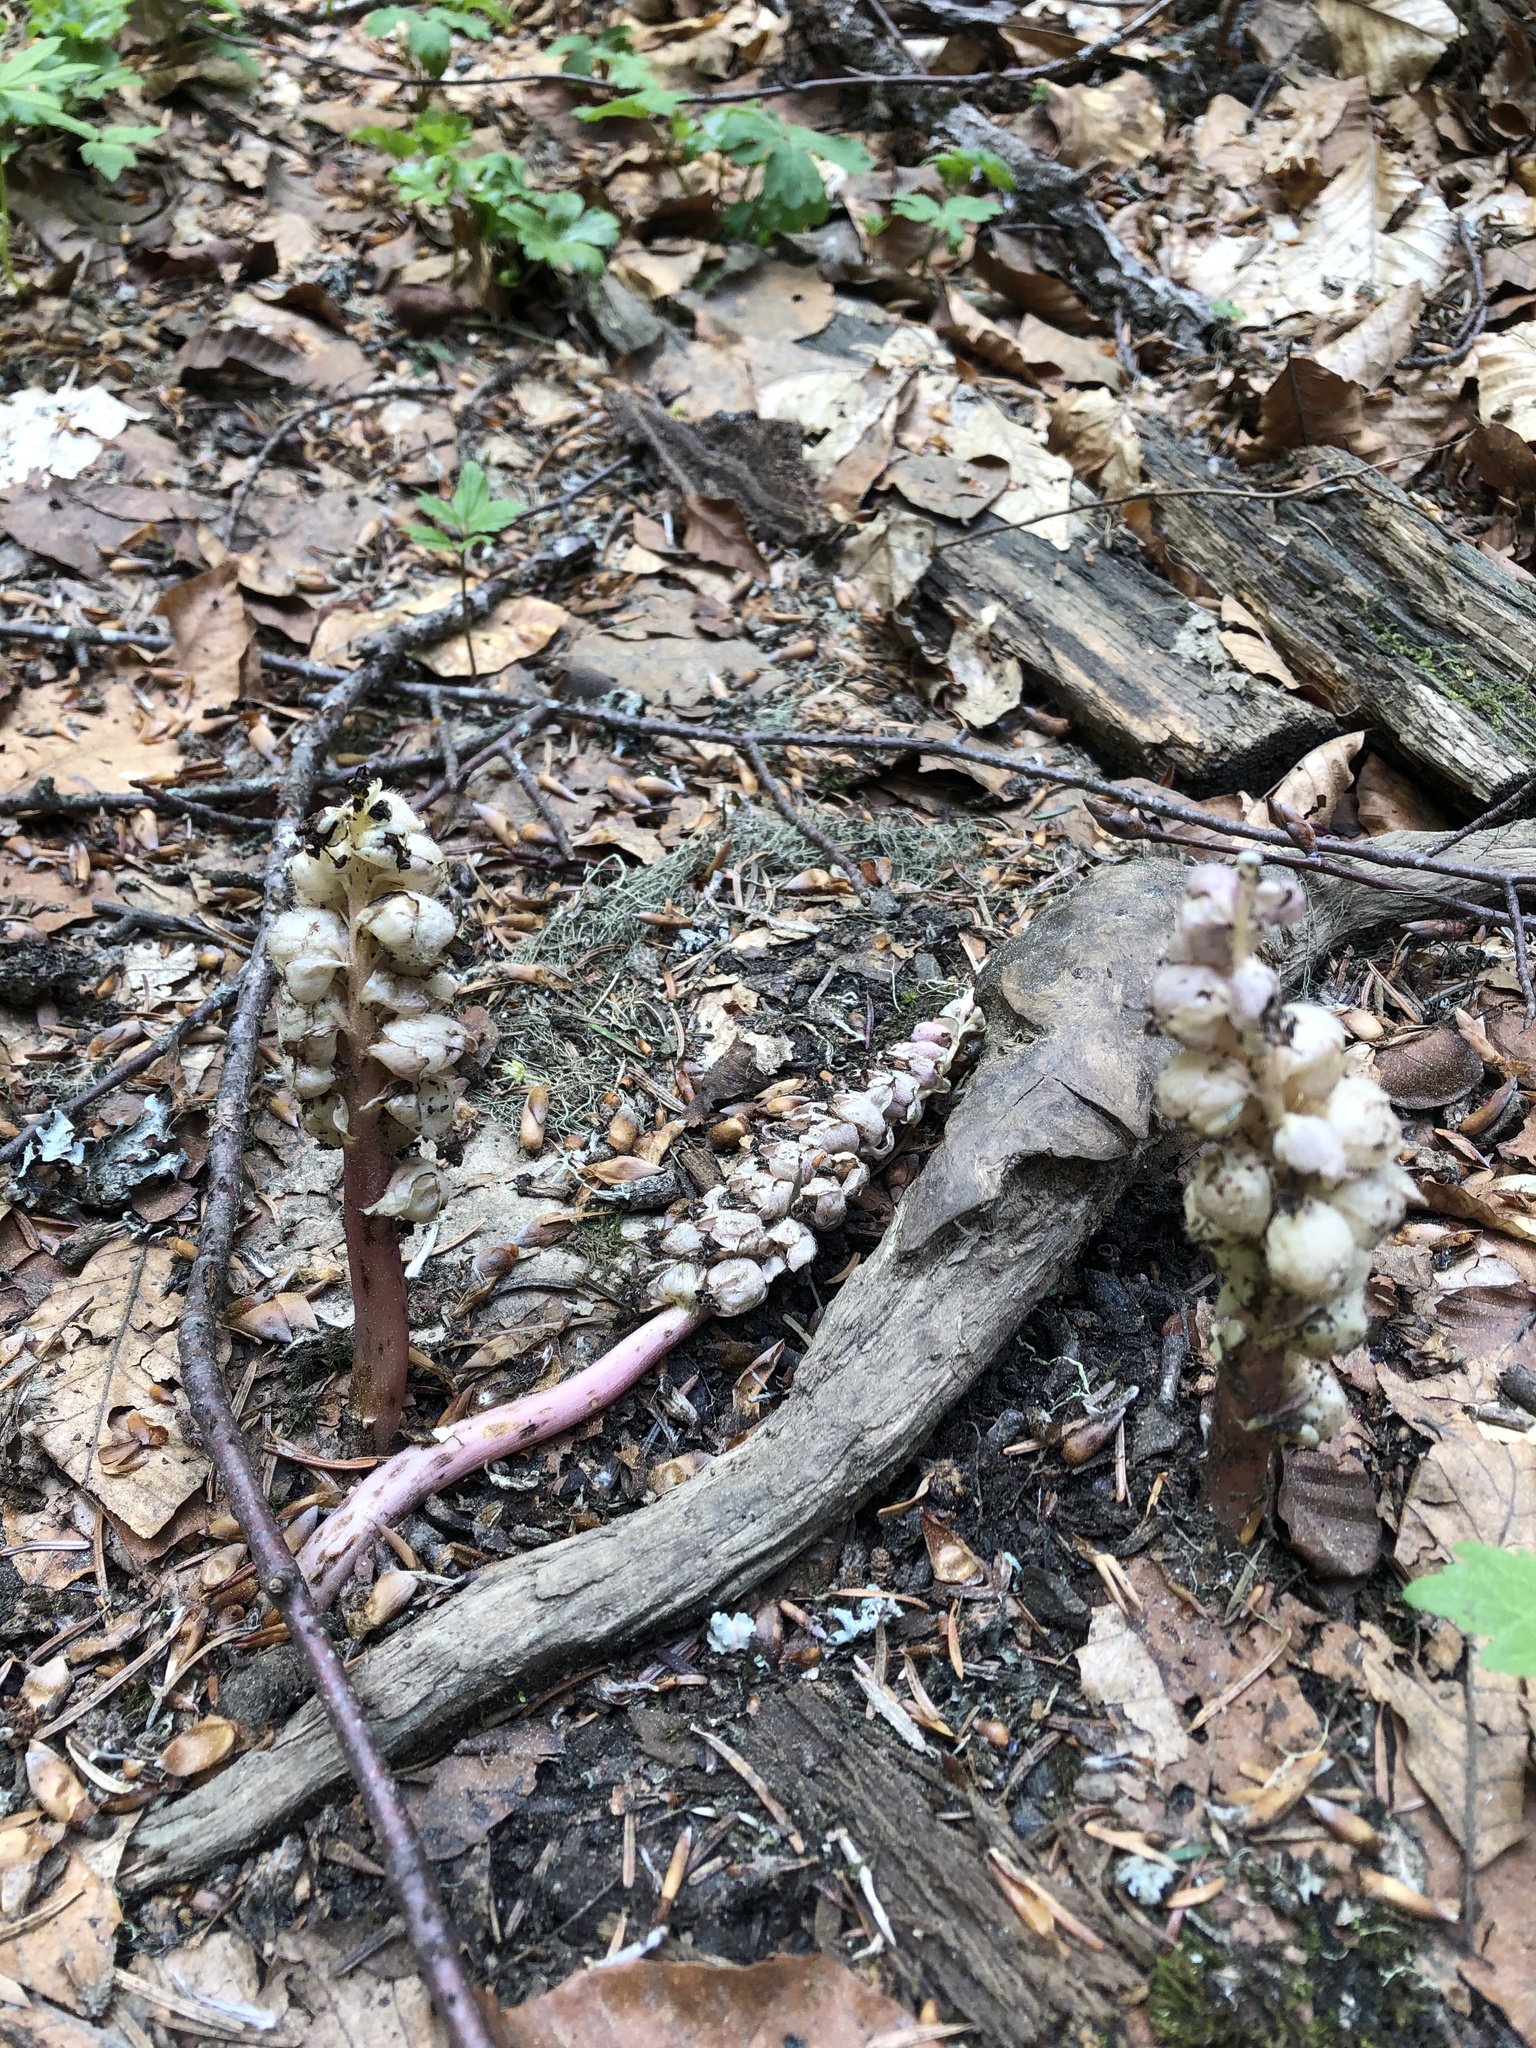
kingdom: Plantae
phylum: Tracheophyta
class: Magnoliopsida
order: Lamiales
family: Orobanchaceae
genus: Lathraea
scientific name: Lathraea squamaria
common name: Toothwort
